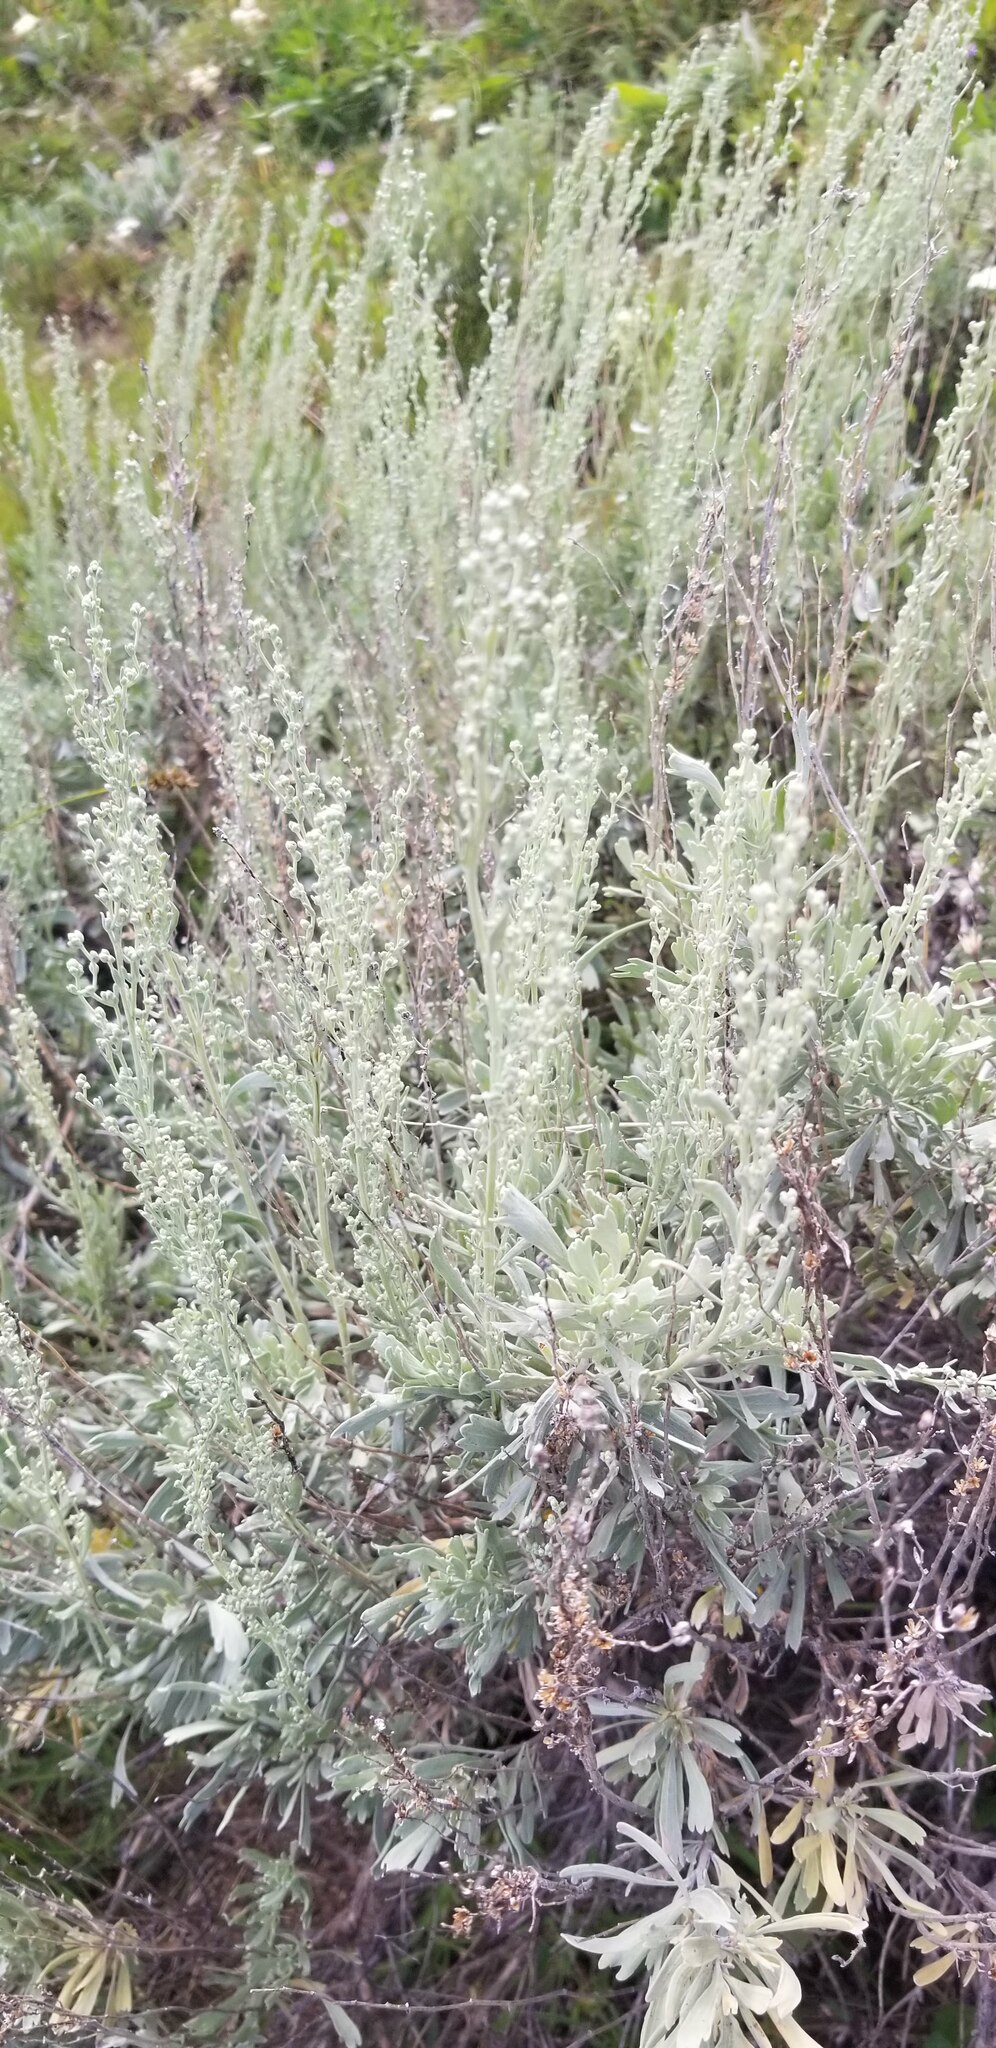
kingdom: Plantae
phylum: Tracheophyta
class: Magnoliopsida
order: Asterales
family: Asteraceae
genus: Artemisia
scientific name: Artemisia tridentata
